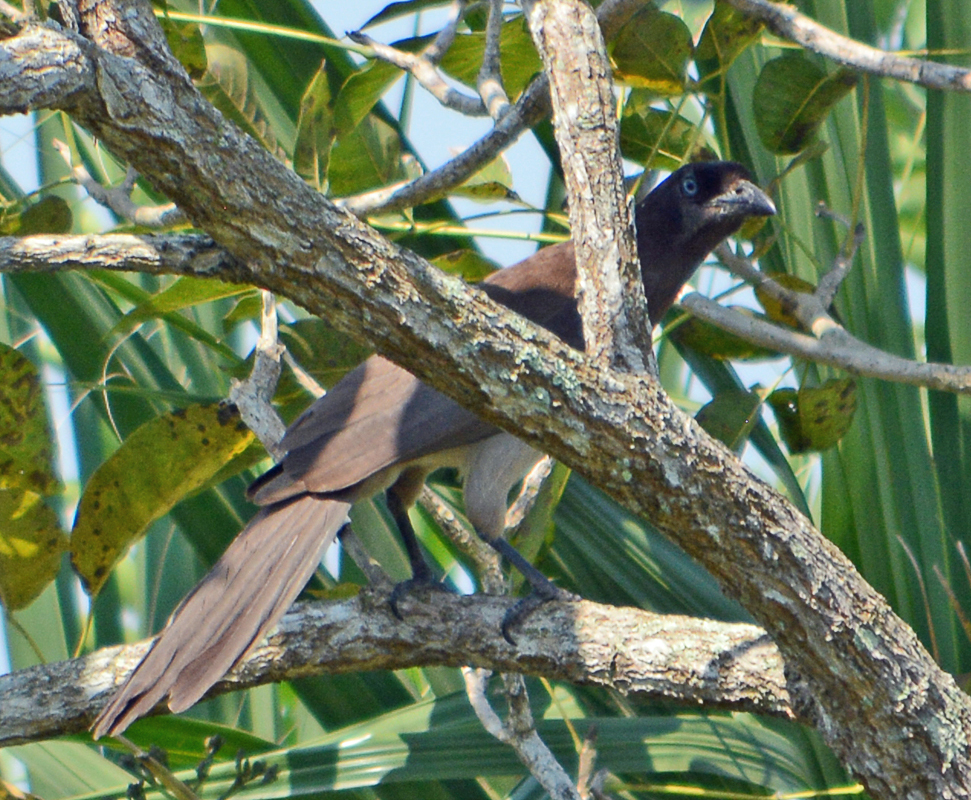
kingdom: Animalia
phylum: Chordata
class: Aves
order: Passeriformes
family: Corvidae
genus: Psilorhinus
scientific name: Psilorhinus morio
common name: Brown jay
